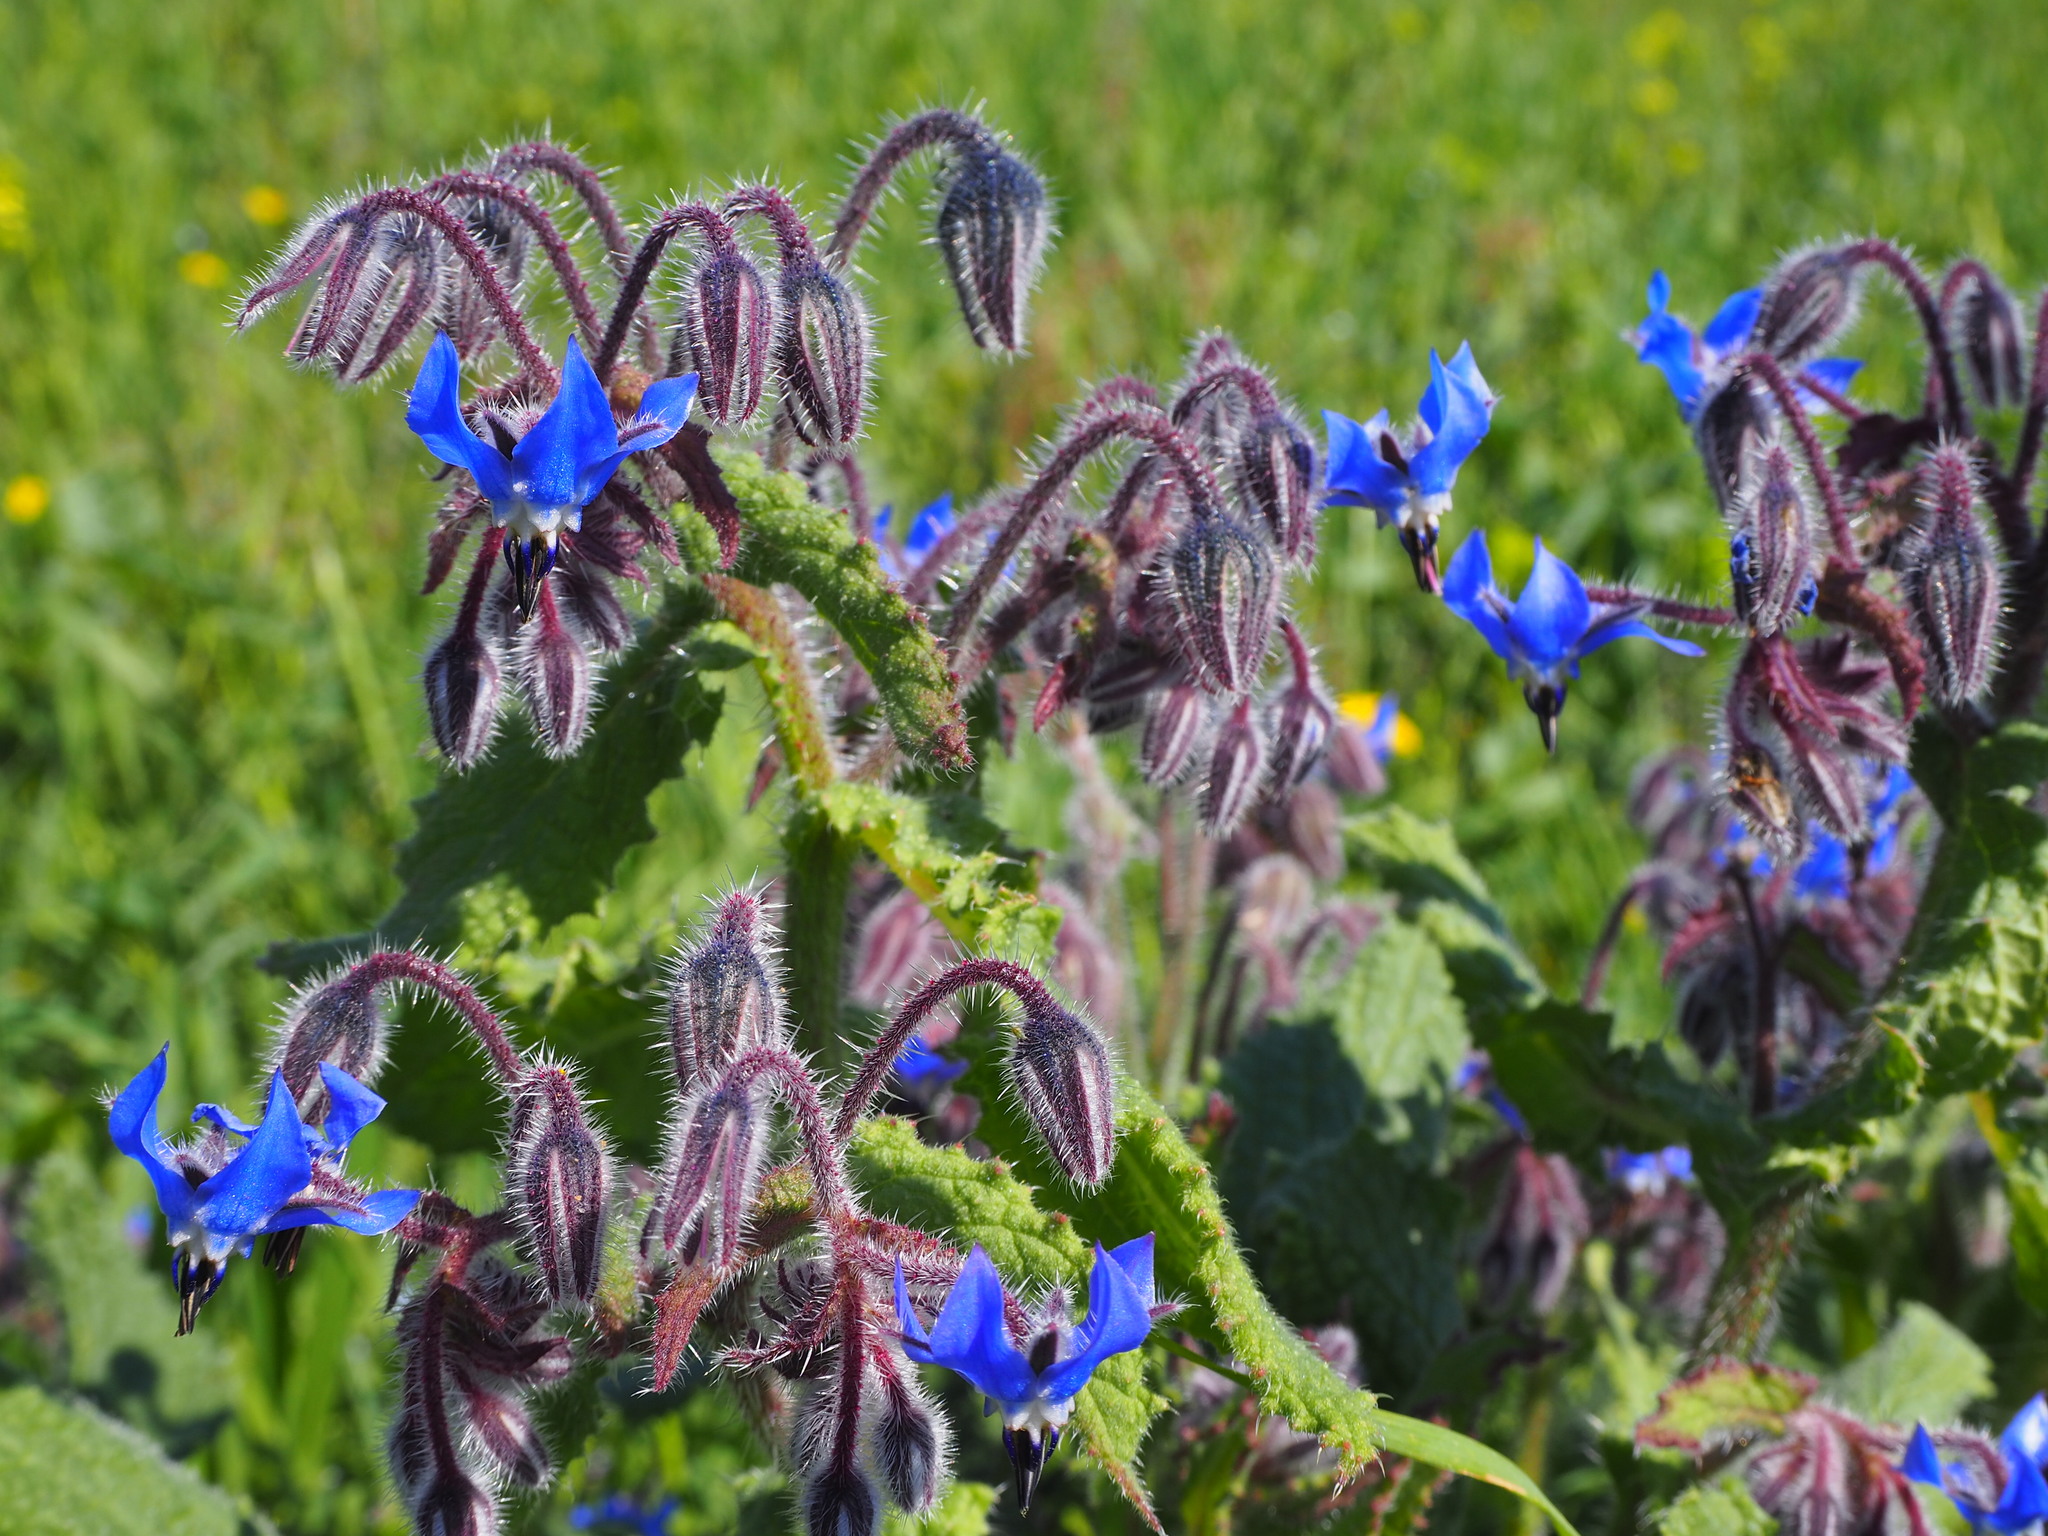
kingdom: Plantae
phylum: Tracheophyta
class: Magnoliopsida
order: Boraginales
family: Boraginaceae
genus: Borago
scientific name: Borago officinalis
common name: Borage
